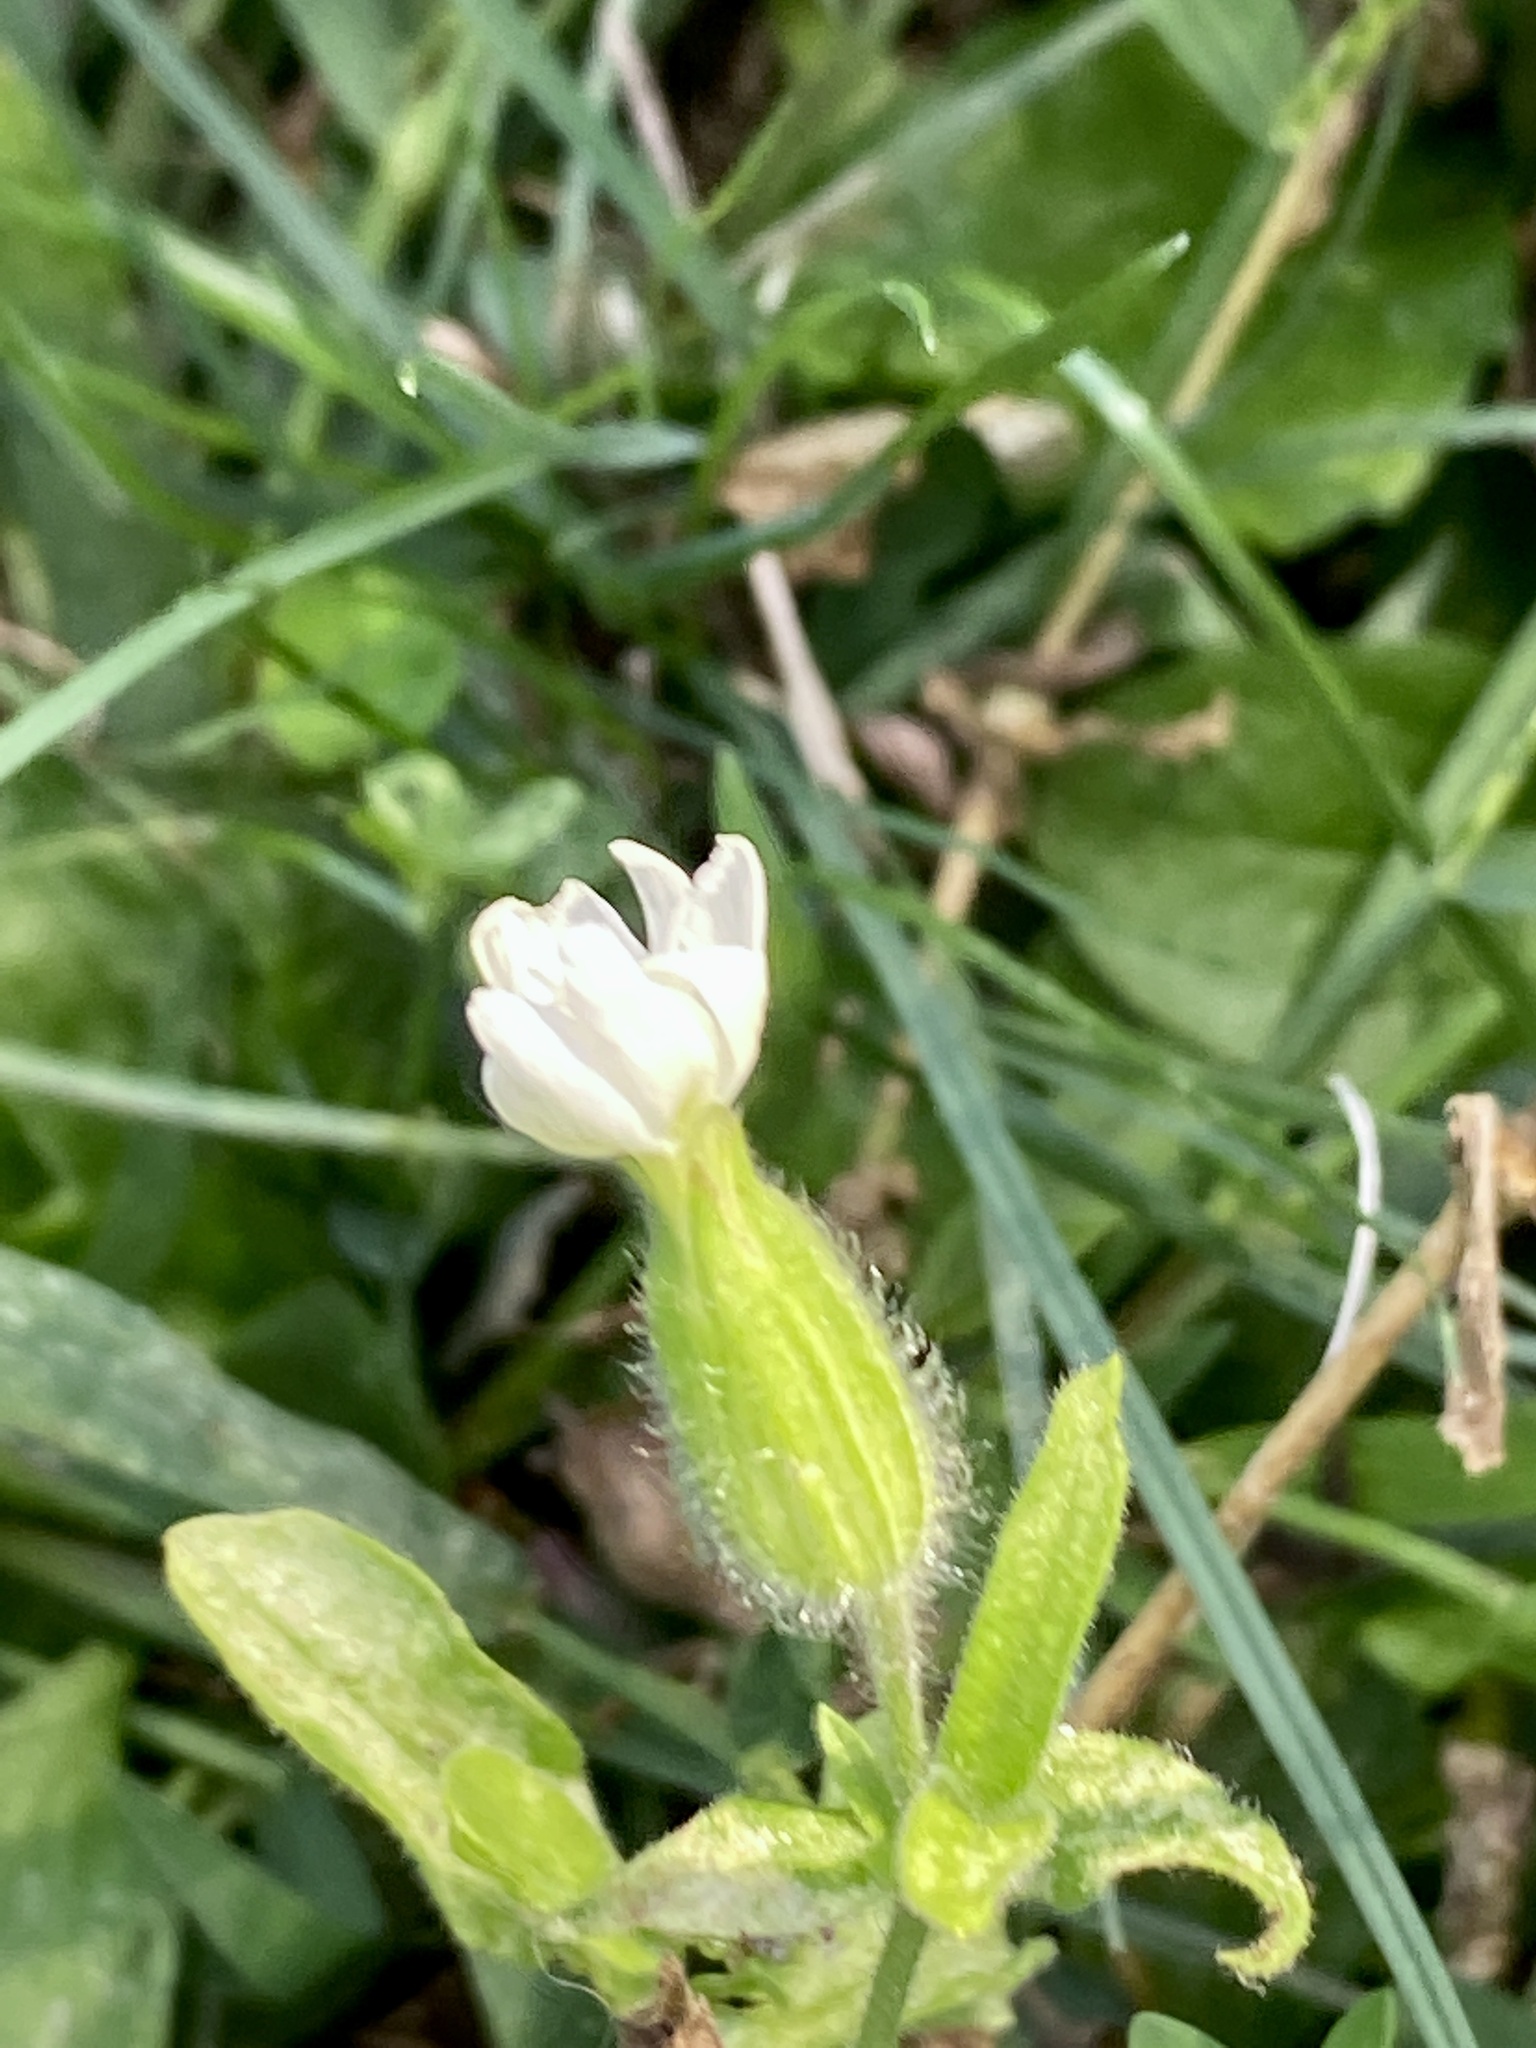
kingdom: Plantae
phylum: Tracheophyta
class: Magnoliopsida
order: Caryophyllales
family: Caryophyllaceae
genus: Silene
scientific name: Silene latifolia
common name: White campion
